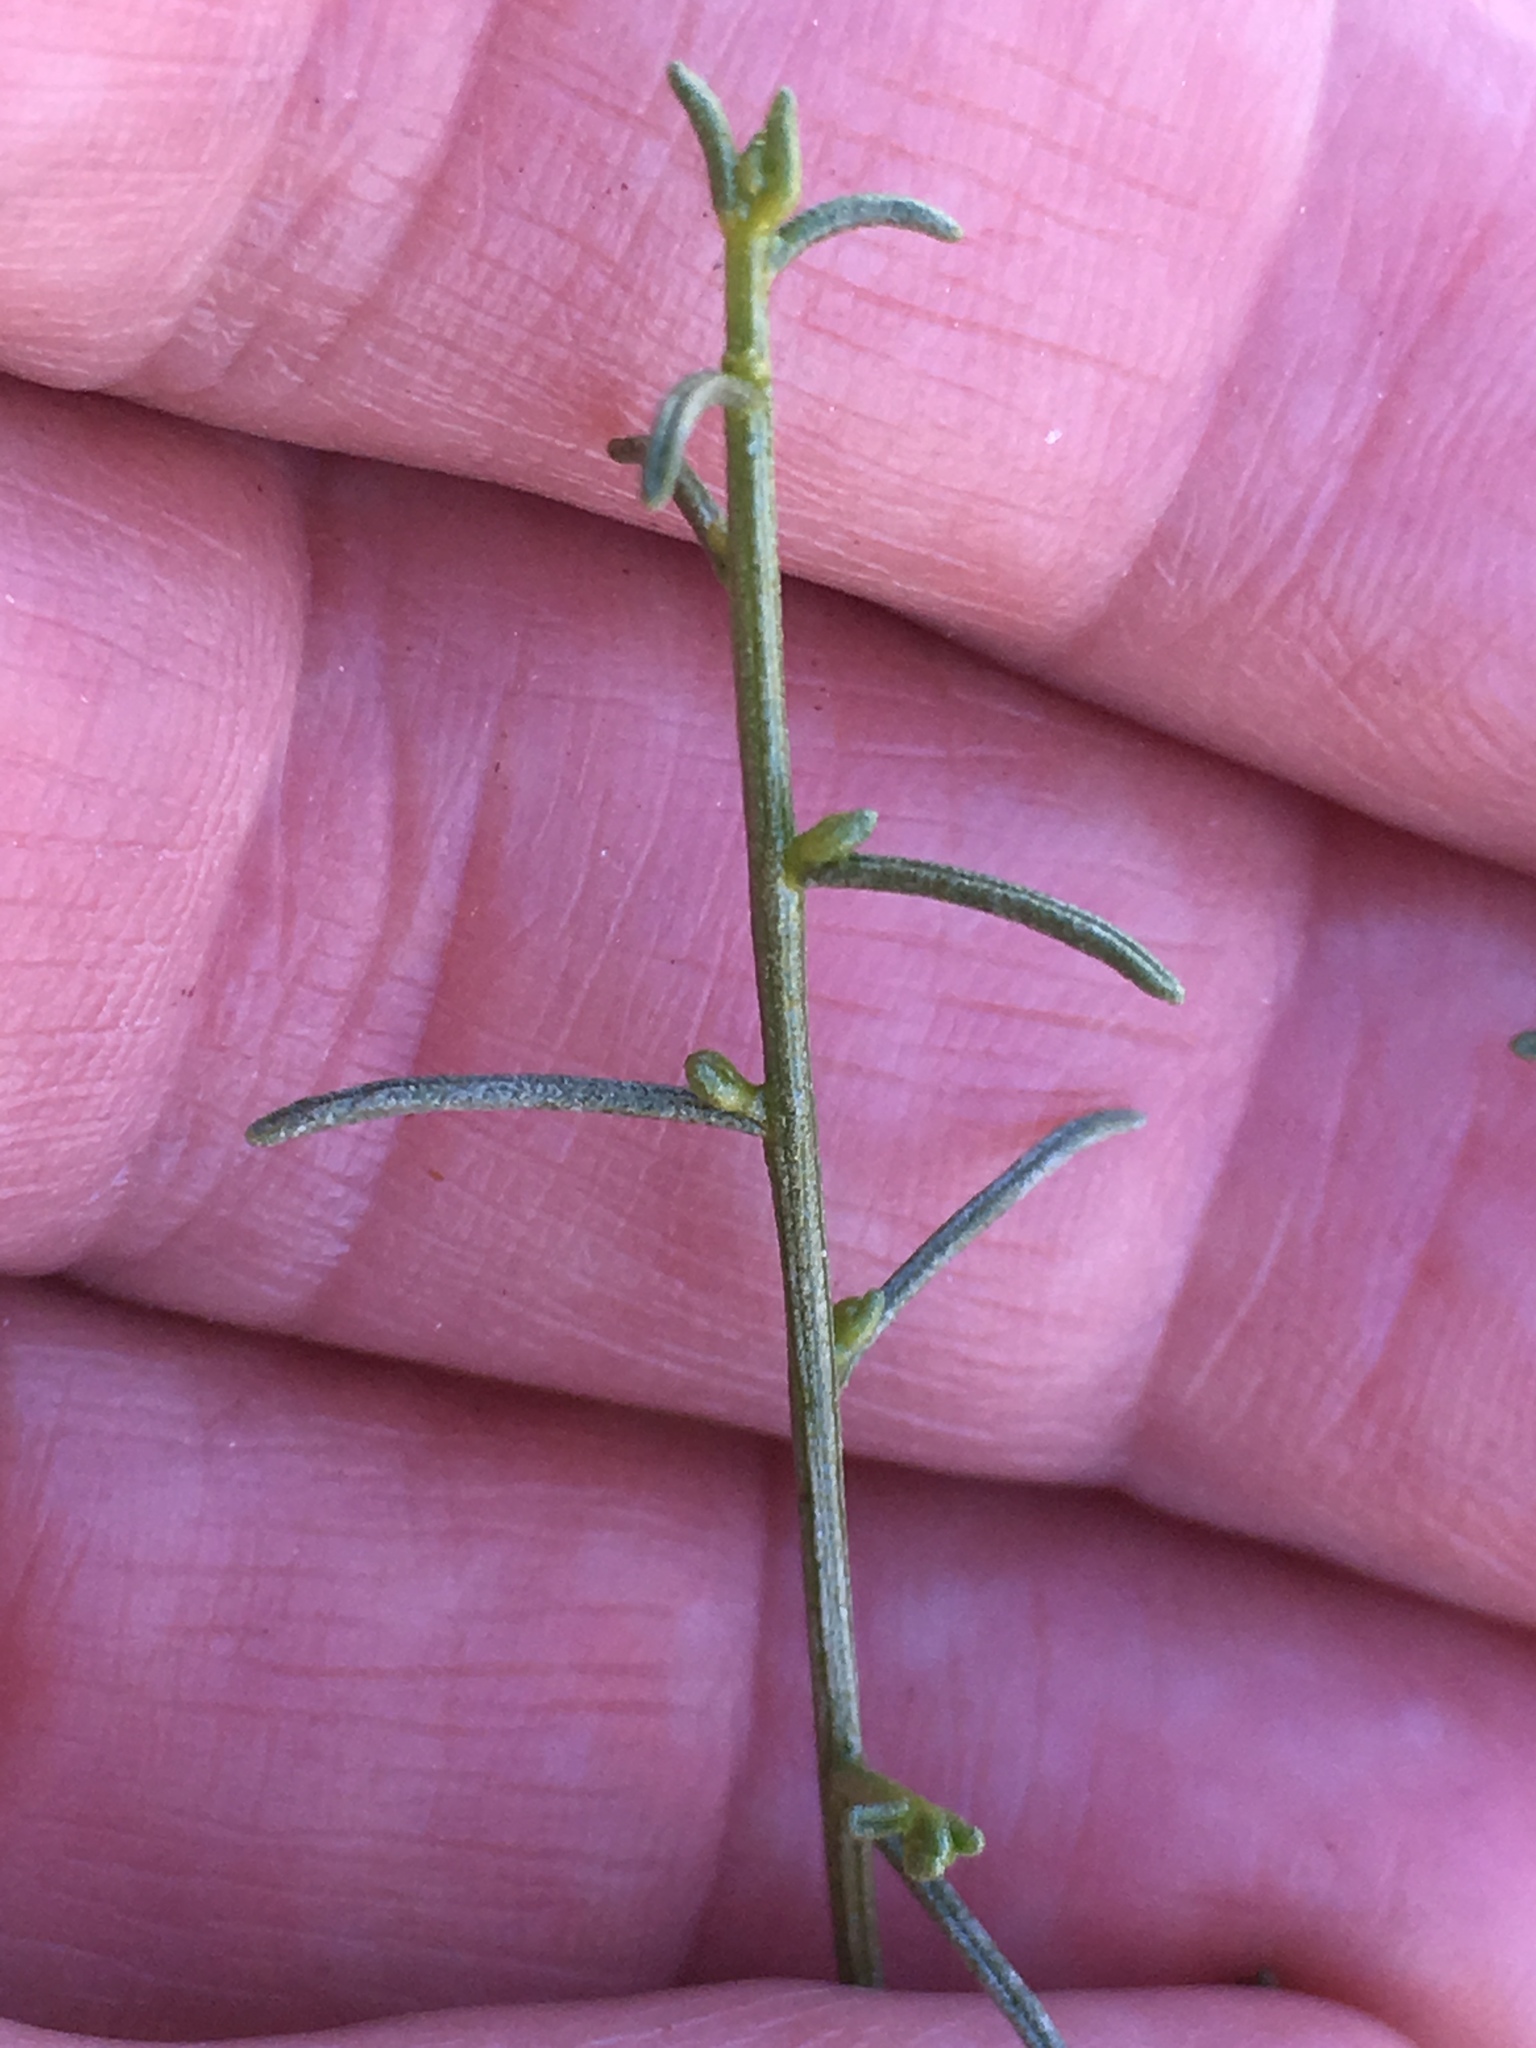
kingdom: Plantae
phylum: Tracheophyta
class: Magnoliopsida
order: Asterales
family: Asteraceae
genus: Ambrosia
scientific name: Ambrosia salsola
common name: Burrobrush
